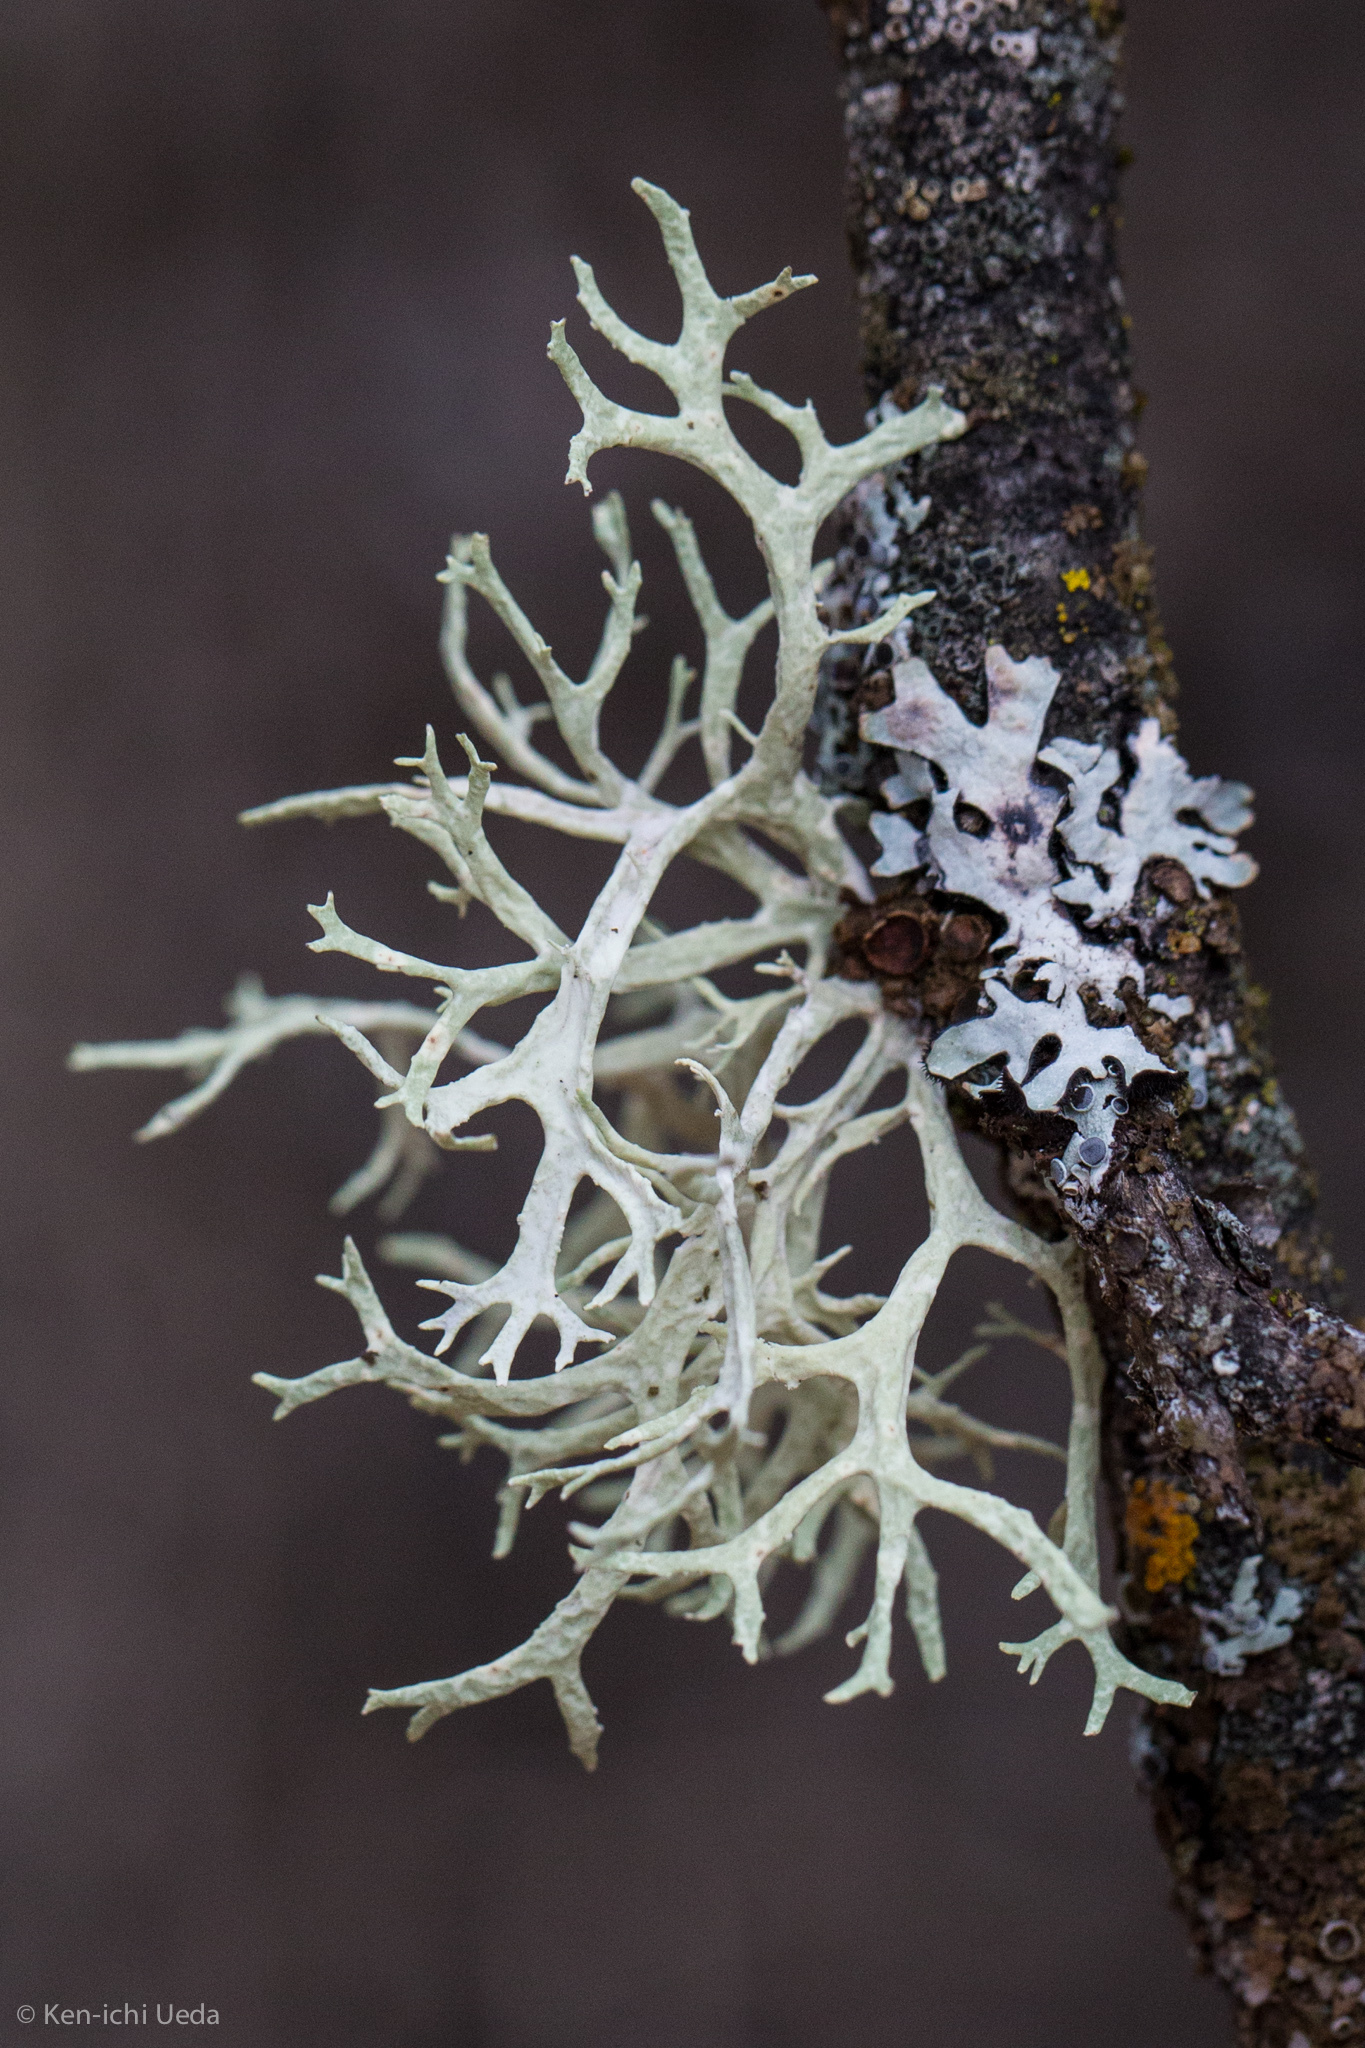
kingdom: Fungi
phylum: Ascomycota
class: Lecanoromycetes
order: Lecanorales
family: Parmeliaceae
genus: Evernia
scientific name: Evernia prunastri
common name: Oak moss
